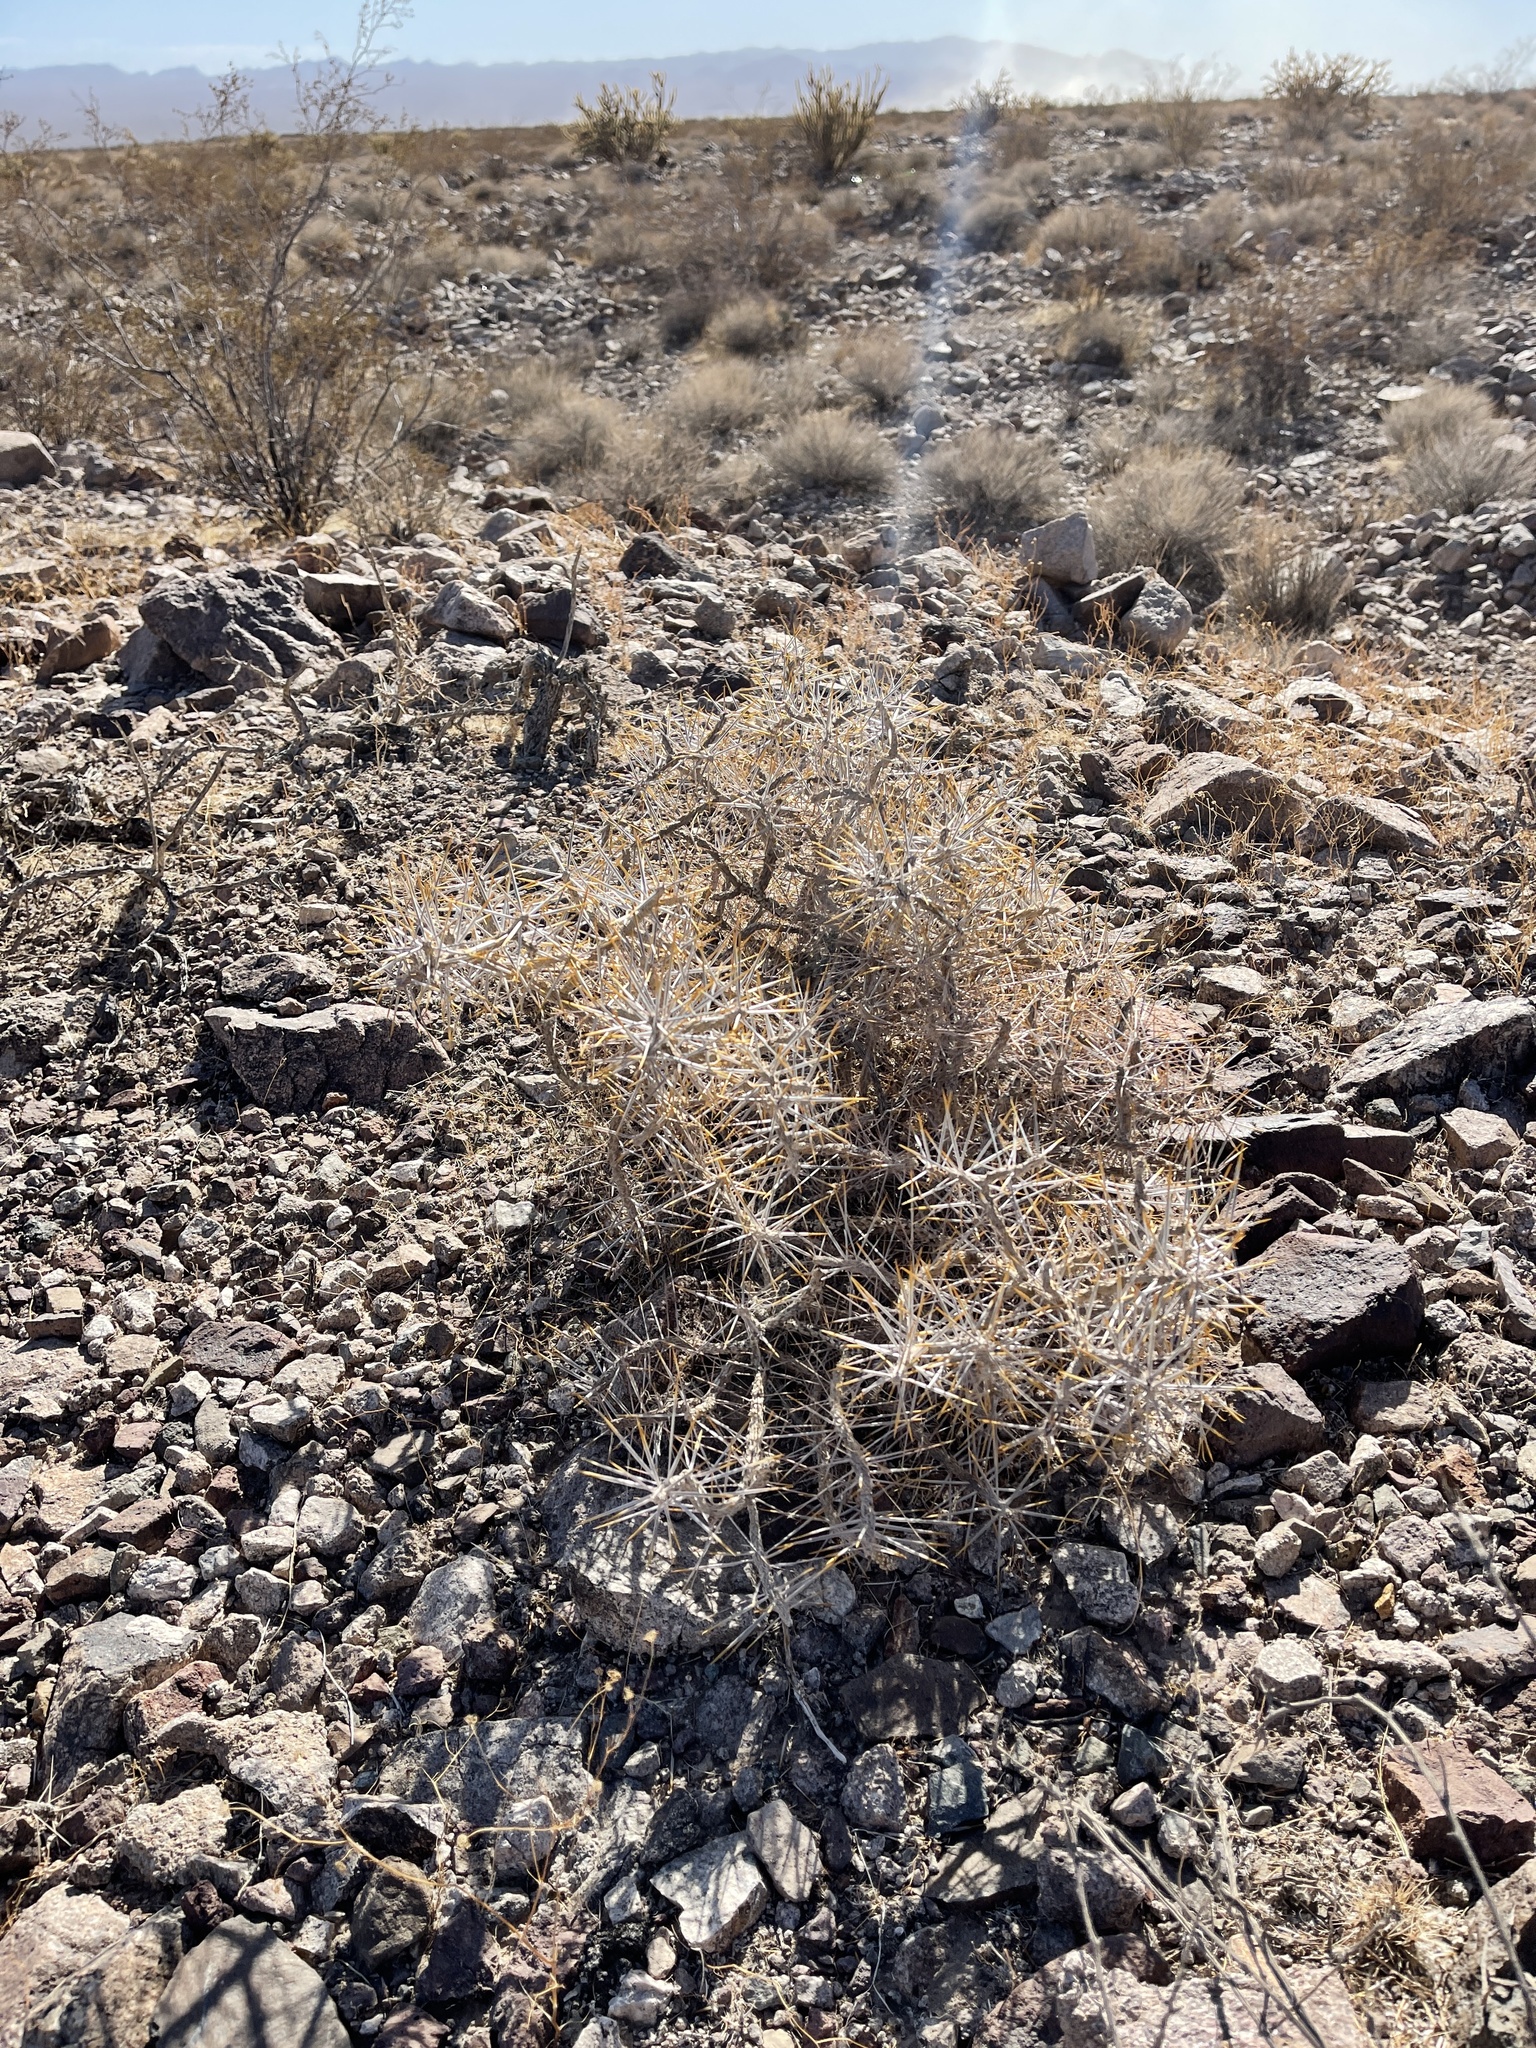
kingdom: Plantae
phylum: Tracheophyta
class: Magnoliopsida
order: Caryophyllales
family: Cactaceae
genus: Cylindropuntia
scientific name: Cylindropuntia ramosissima
